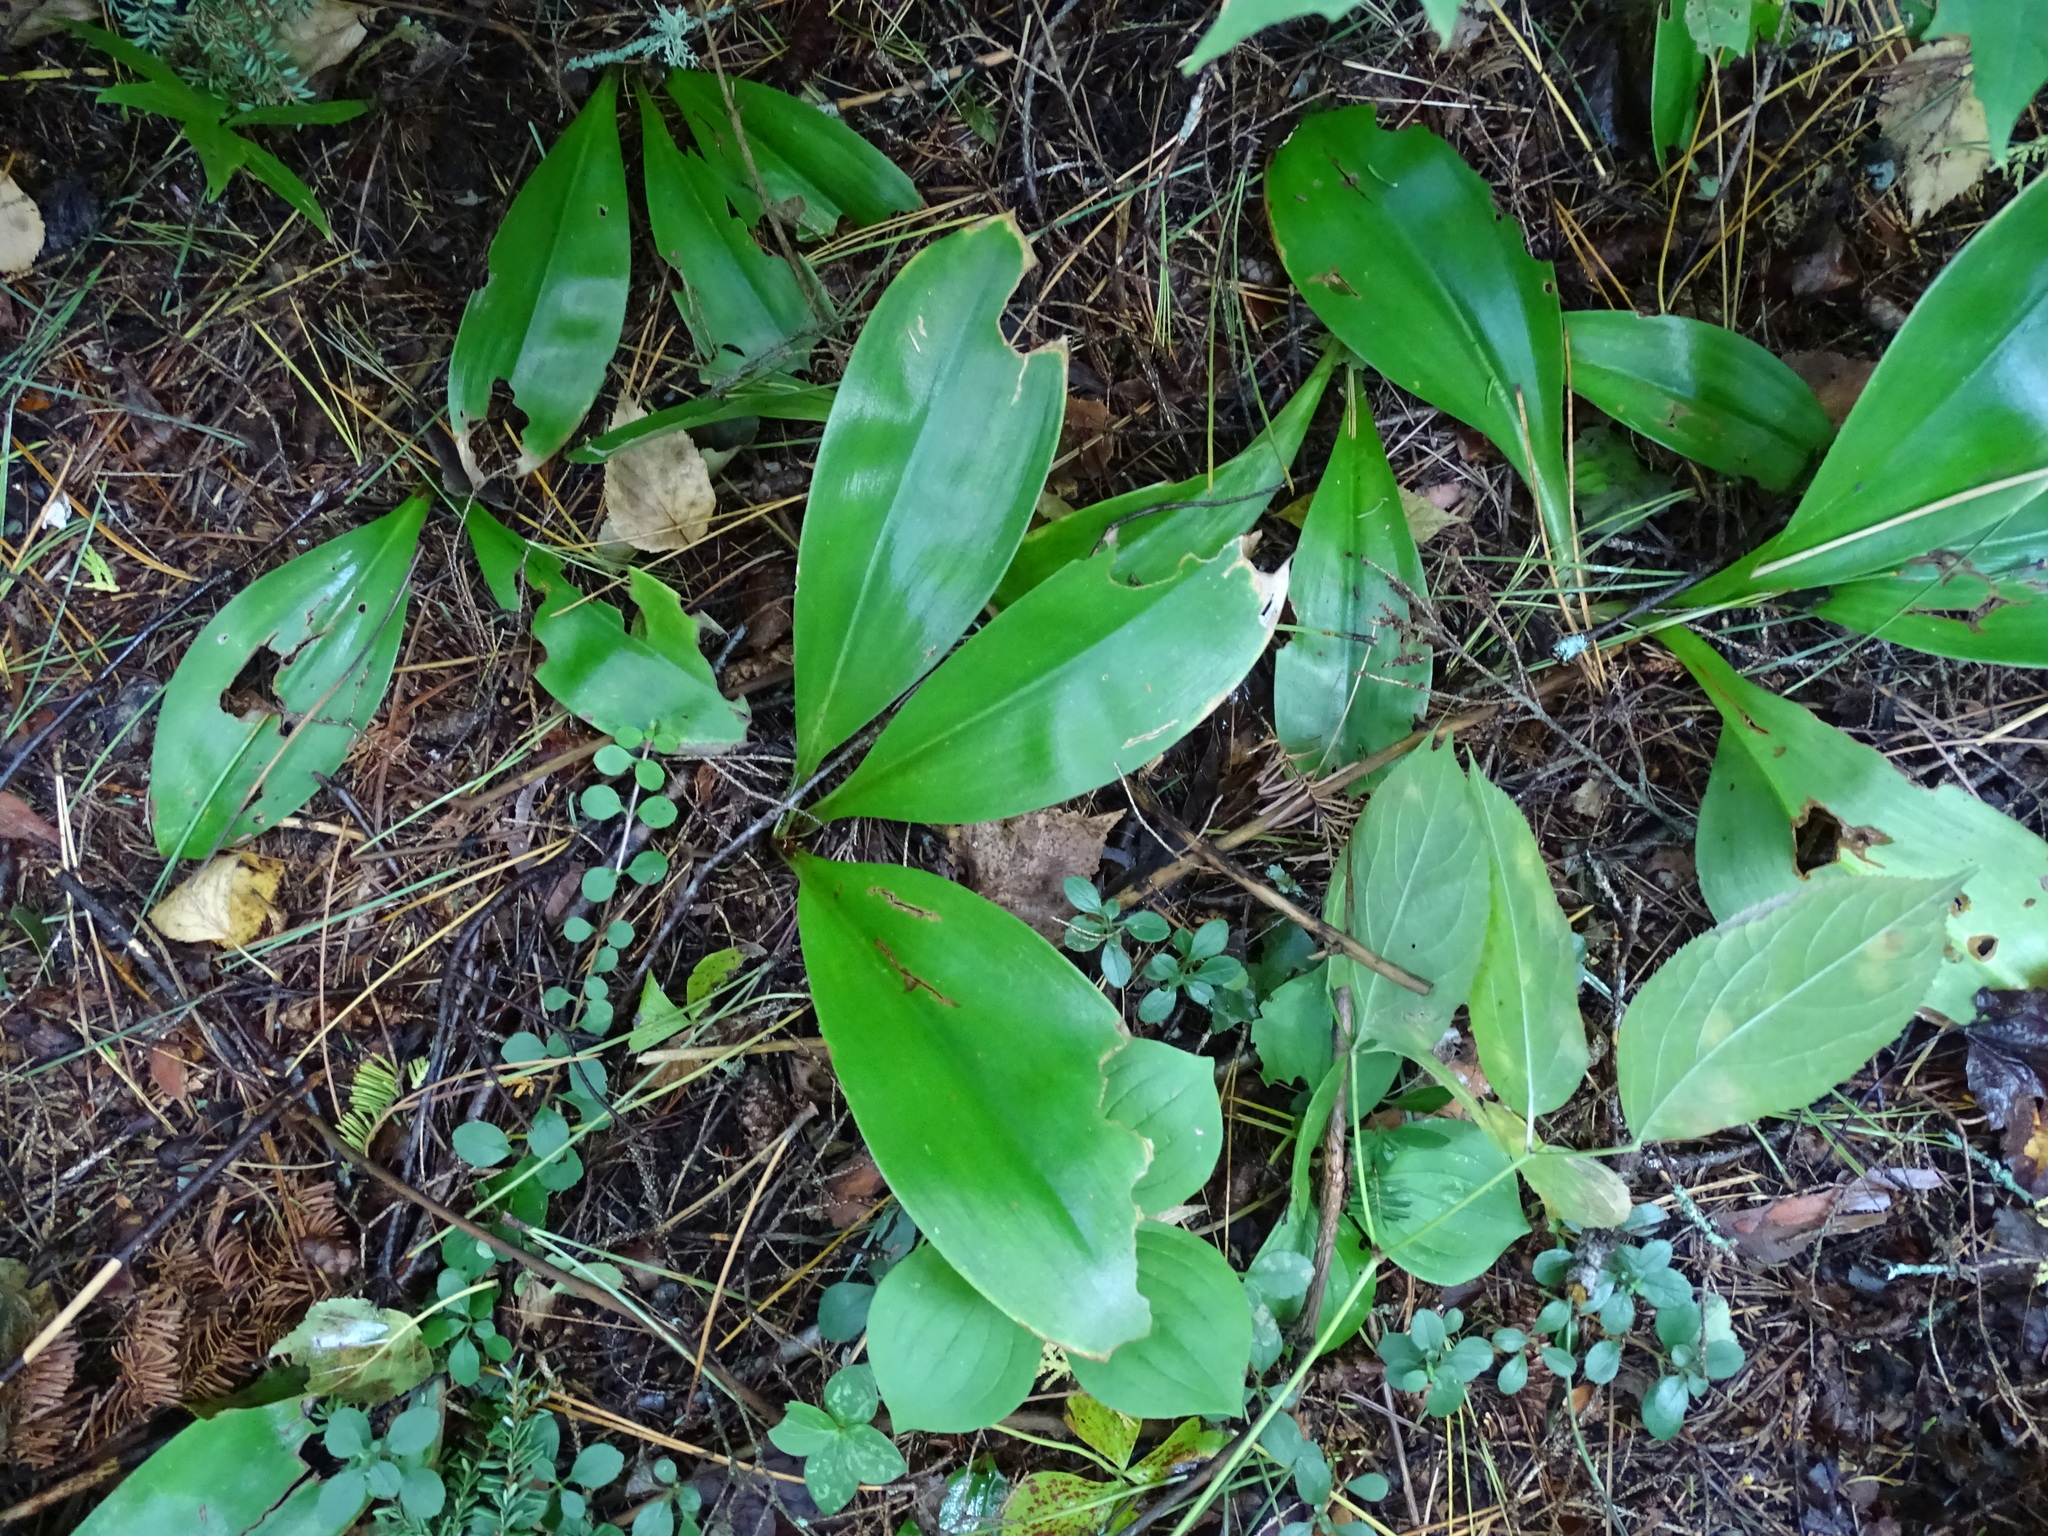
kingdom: Plantae
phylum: Tracheophyta
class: Liliopsida
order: Liliales
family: Liliaceae
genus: Clintonia
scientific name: Clintonia borealis
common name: Yellow clintonia
